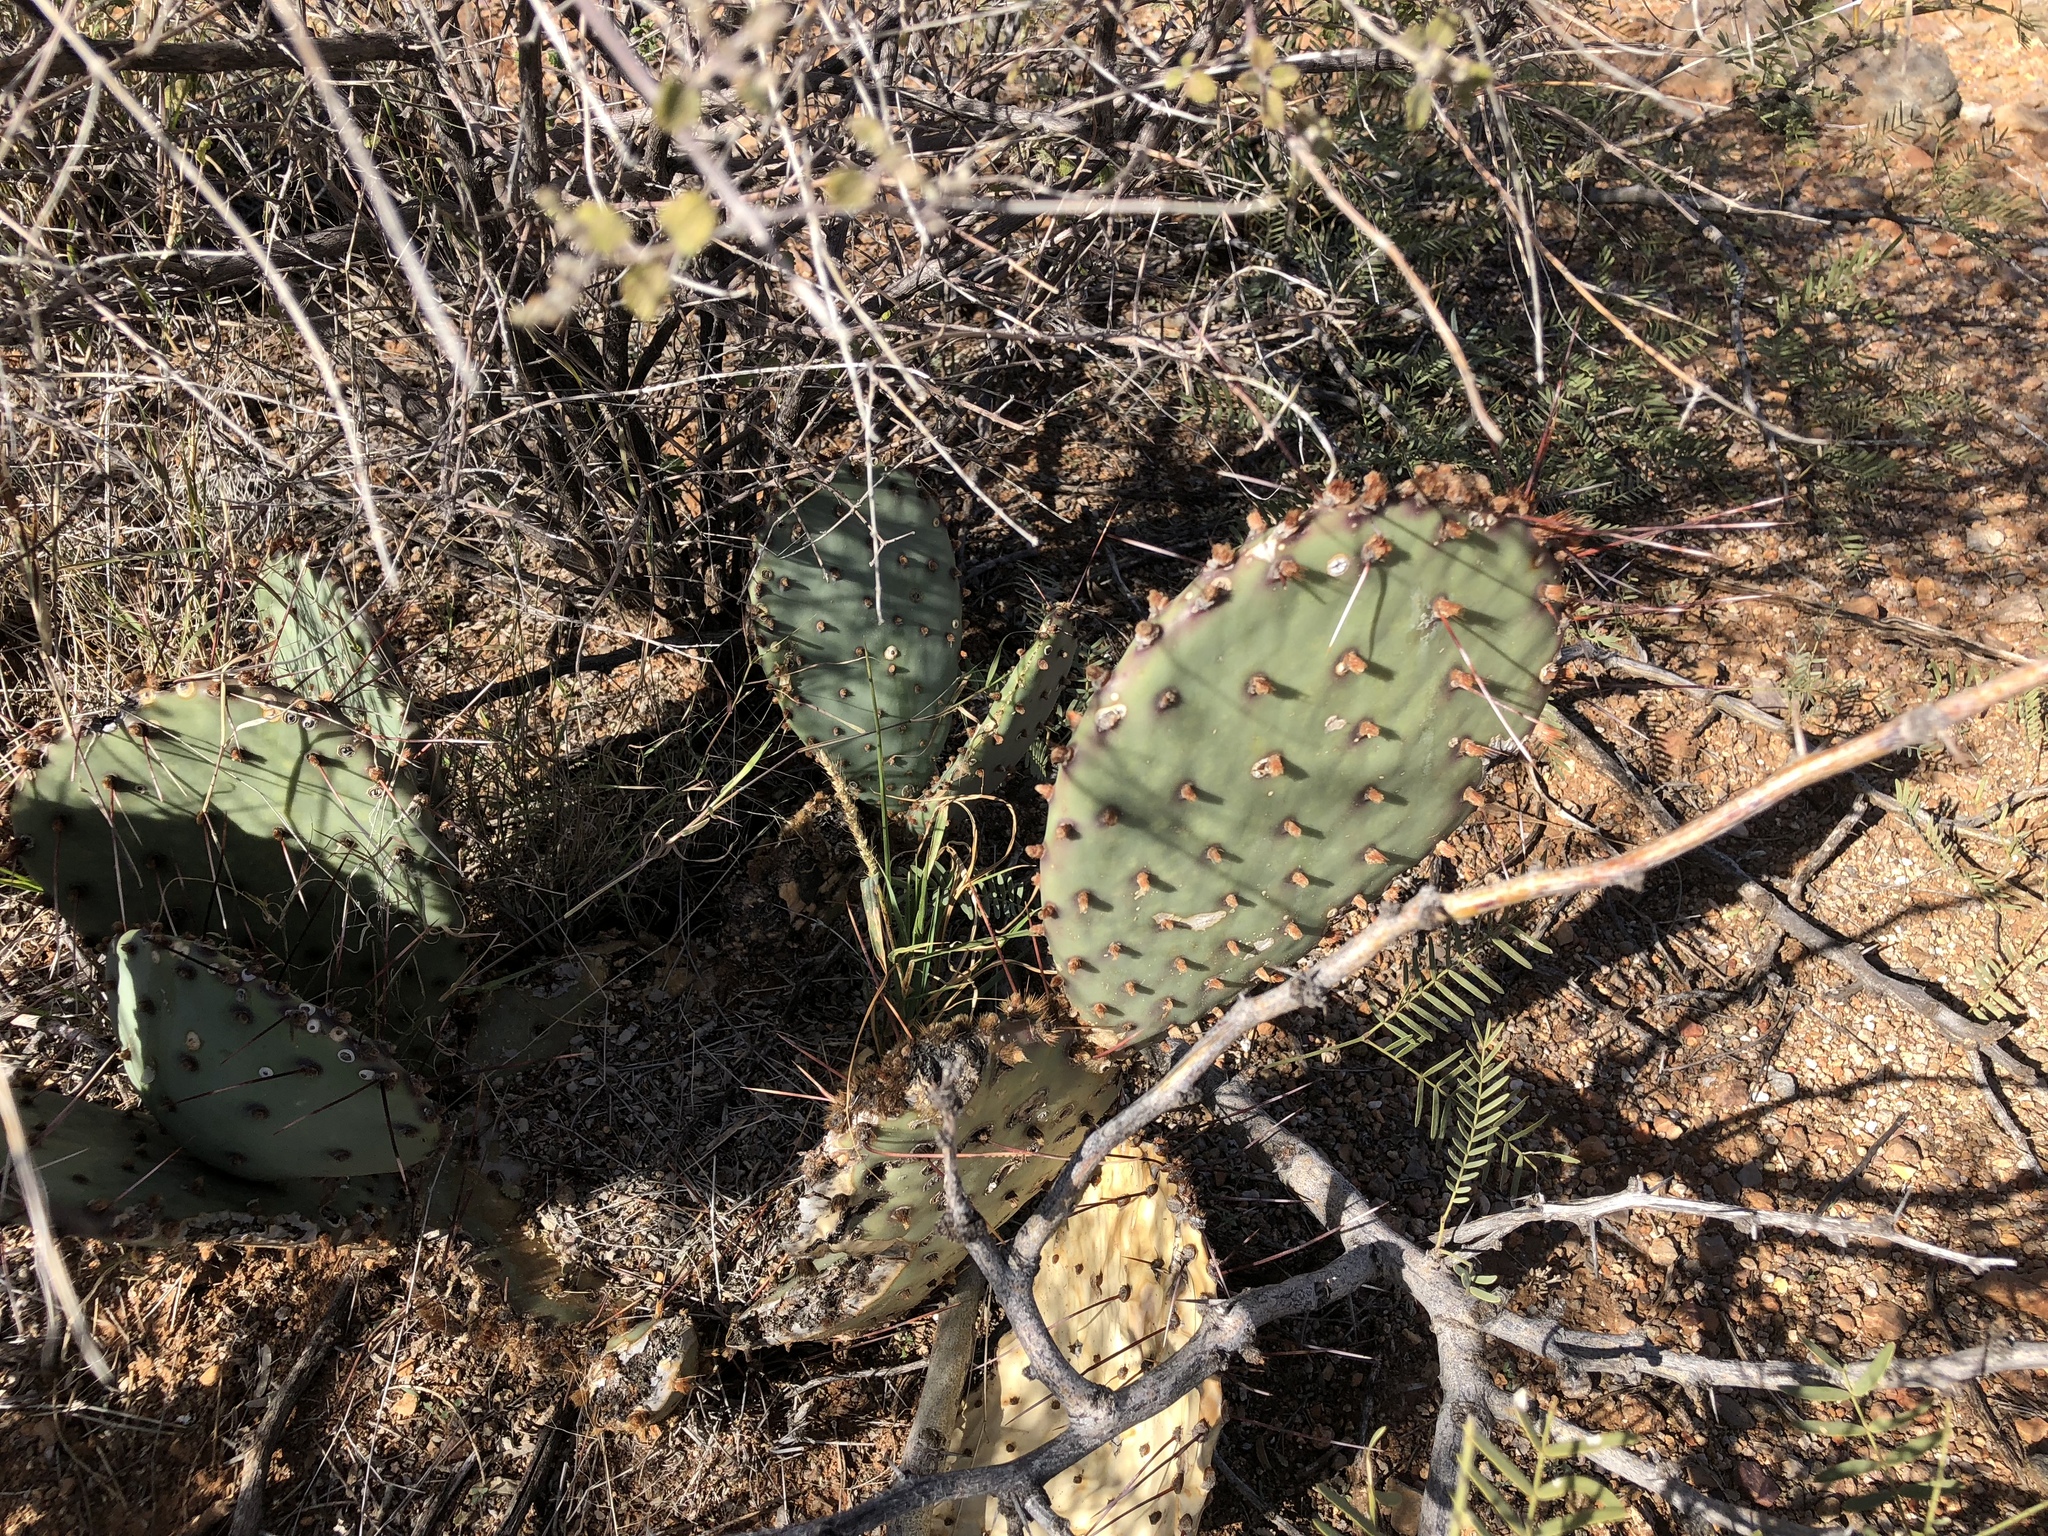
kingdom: Plantae
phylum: Tracheophyta
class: Magnoliopsida
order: Caryophyllales
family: Cactaceae
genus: Opuntia
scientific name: Opuntia macrocentra
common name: Purple prickly-pear
